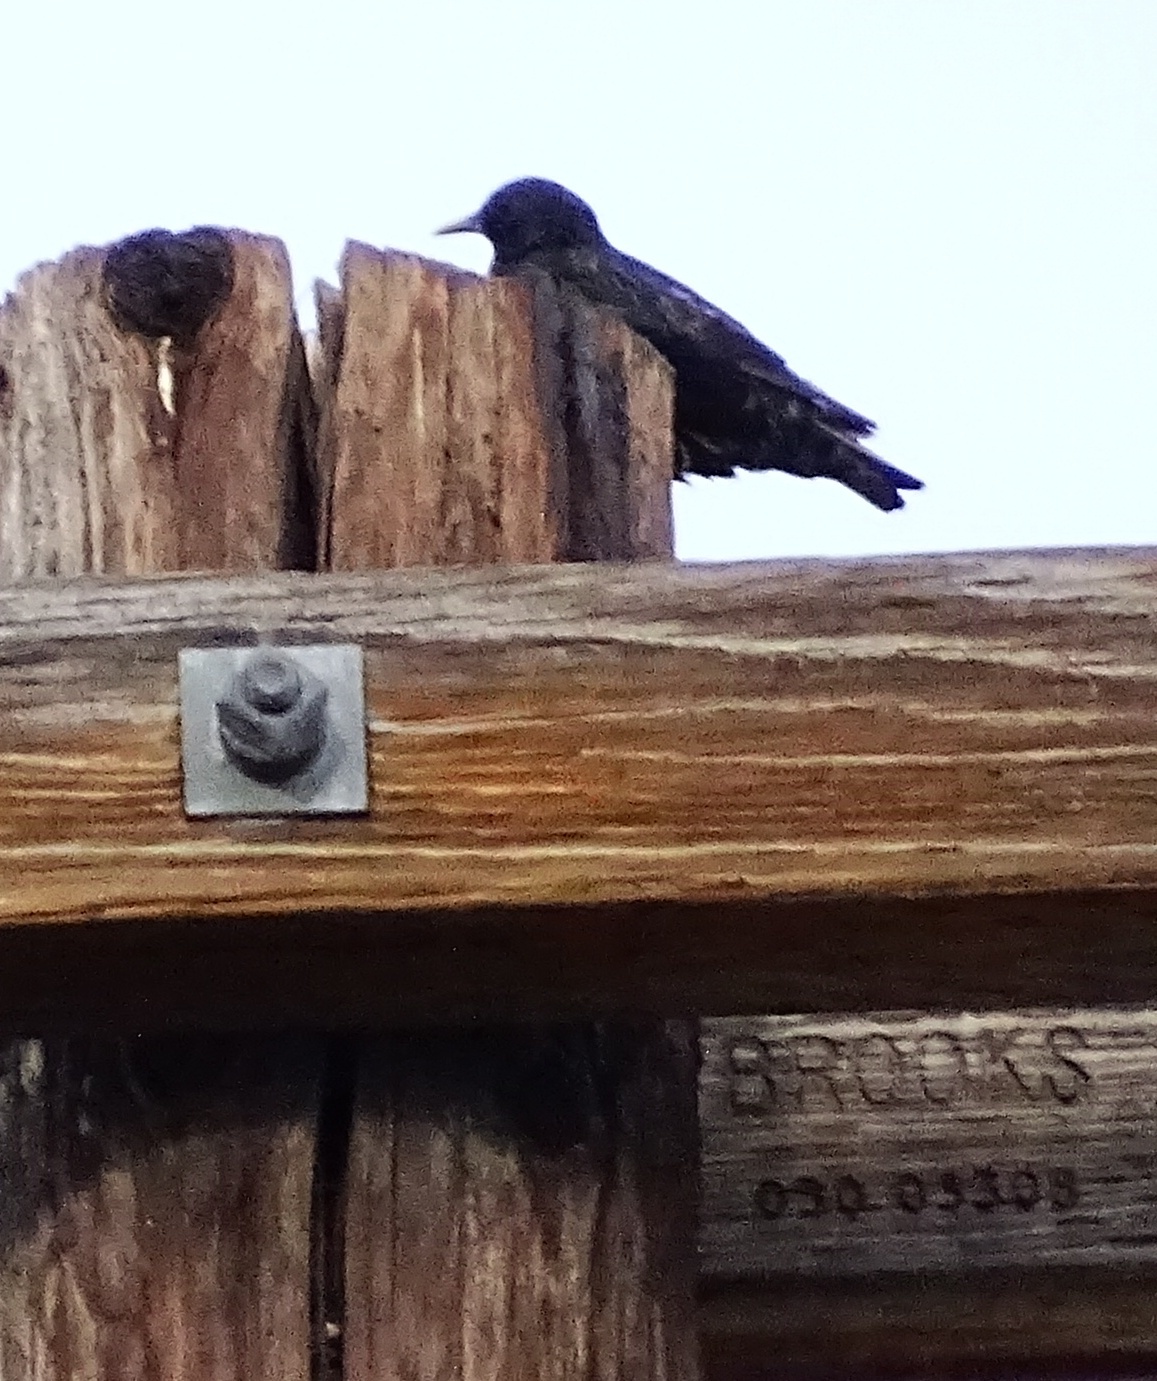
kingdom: Animalia
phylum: Chordata
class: Aves
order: Passeriformes
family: Sturnidae
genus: Sturnus
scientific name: Sturnus vulgaris
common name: Common starling
